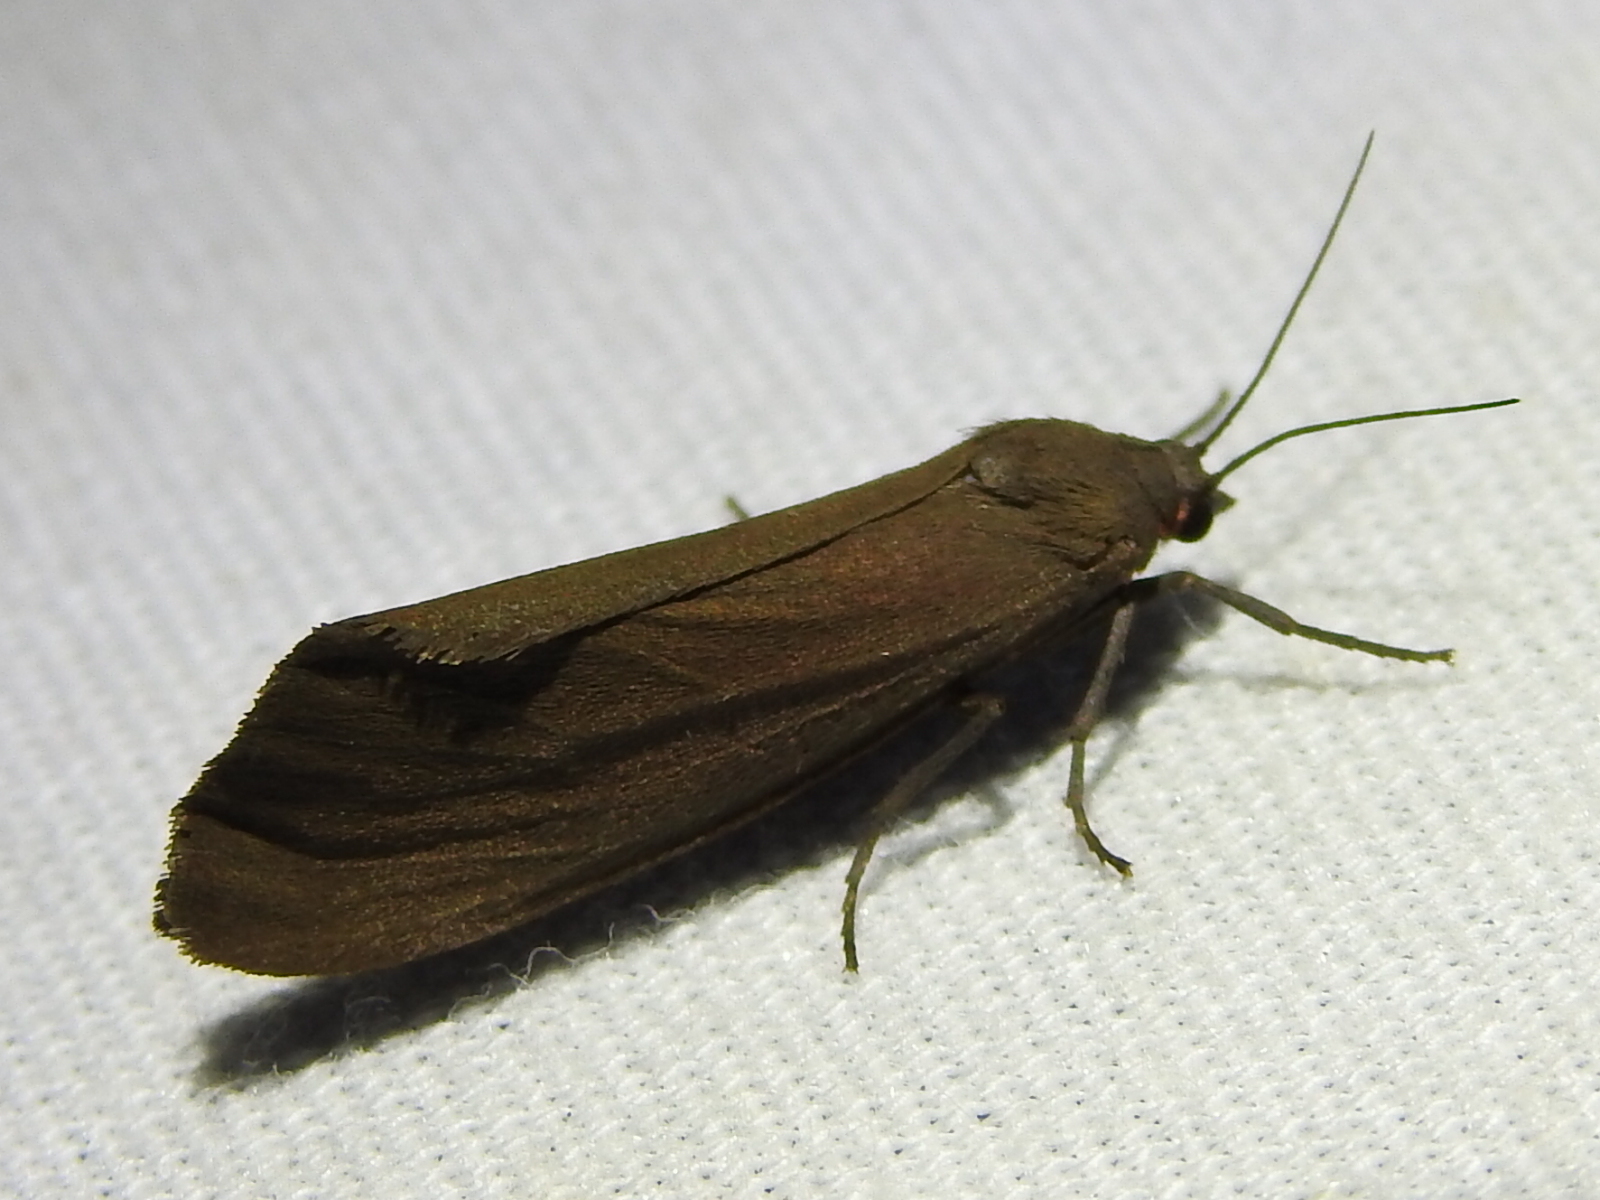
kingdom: Animalia
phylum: Arthropoda
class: Insecta
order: Lepidoptera
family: Erebidae
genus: Virbia
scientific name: Virbia costata
